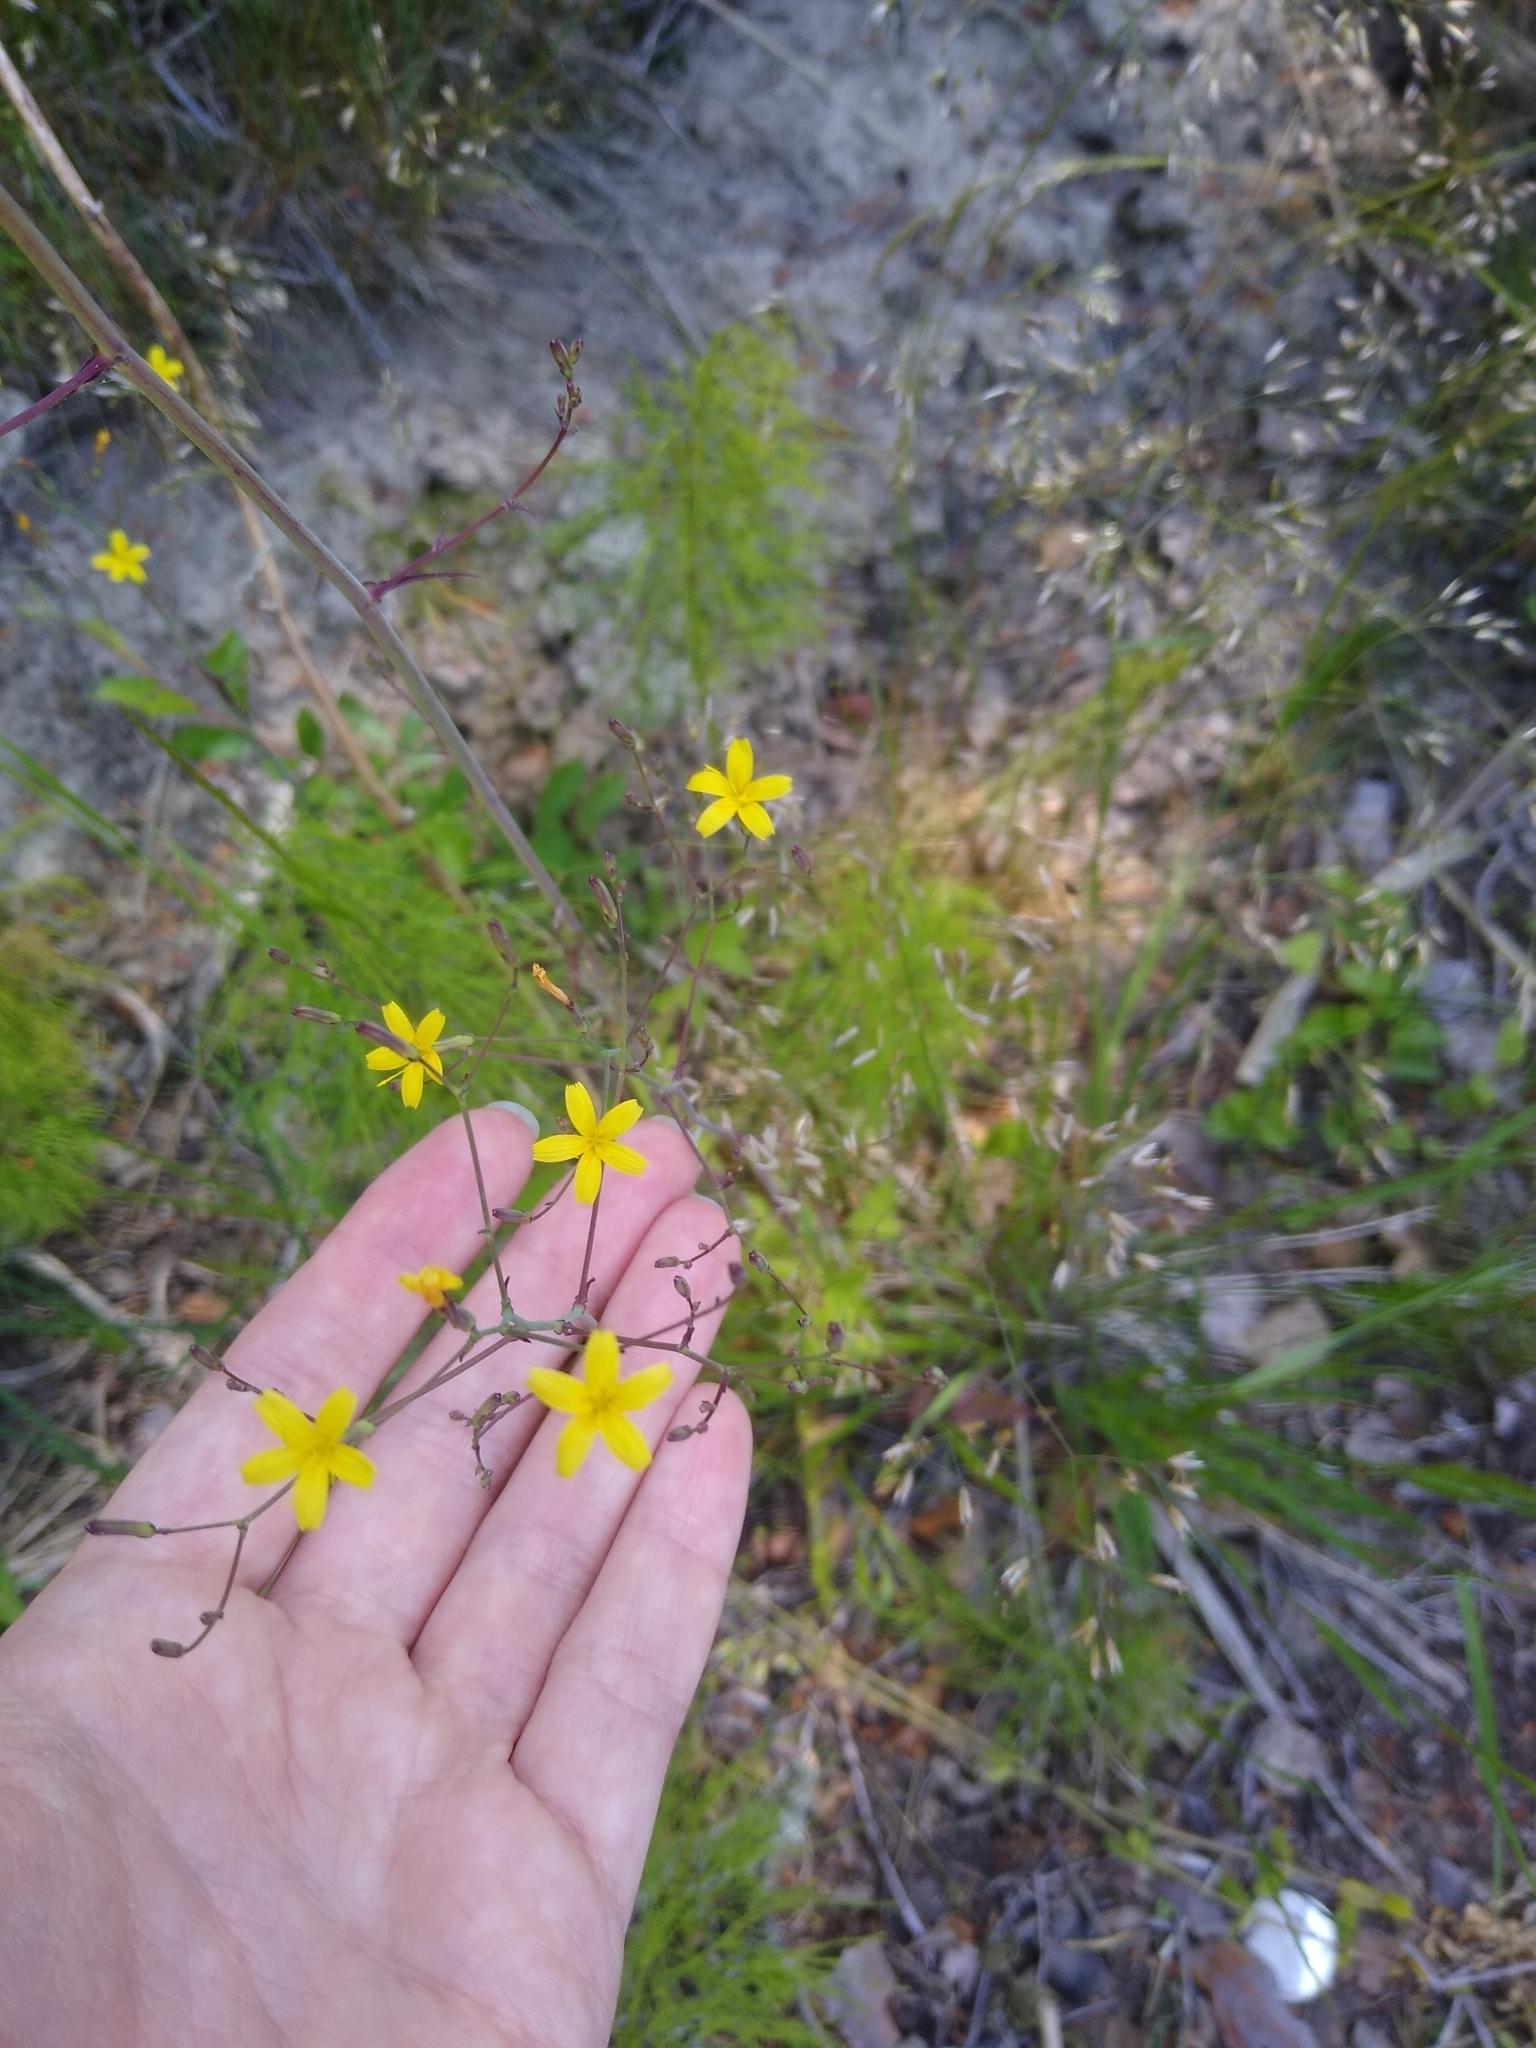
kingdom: Plantae
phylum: Tracheophyta
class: Magnoliopsida
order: Asterales
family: Asteraceae
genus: Mycelis
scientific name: Mycelis muralis
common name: Wall lettuce
